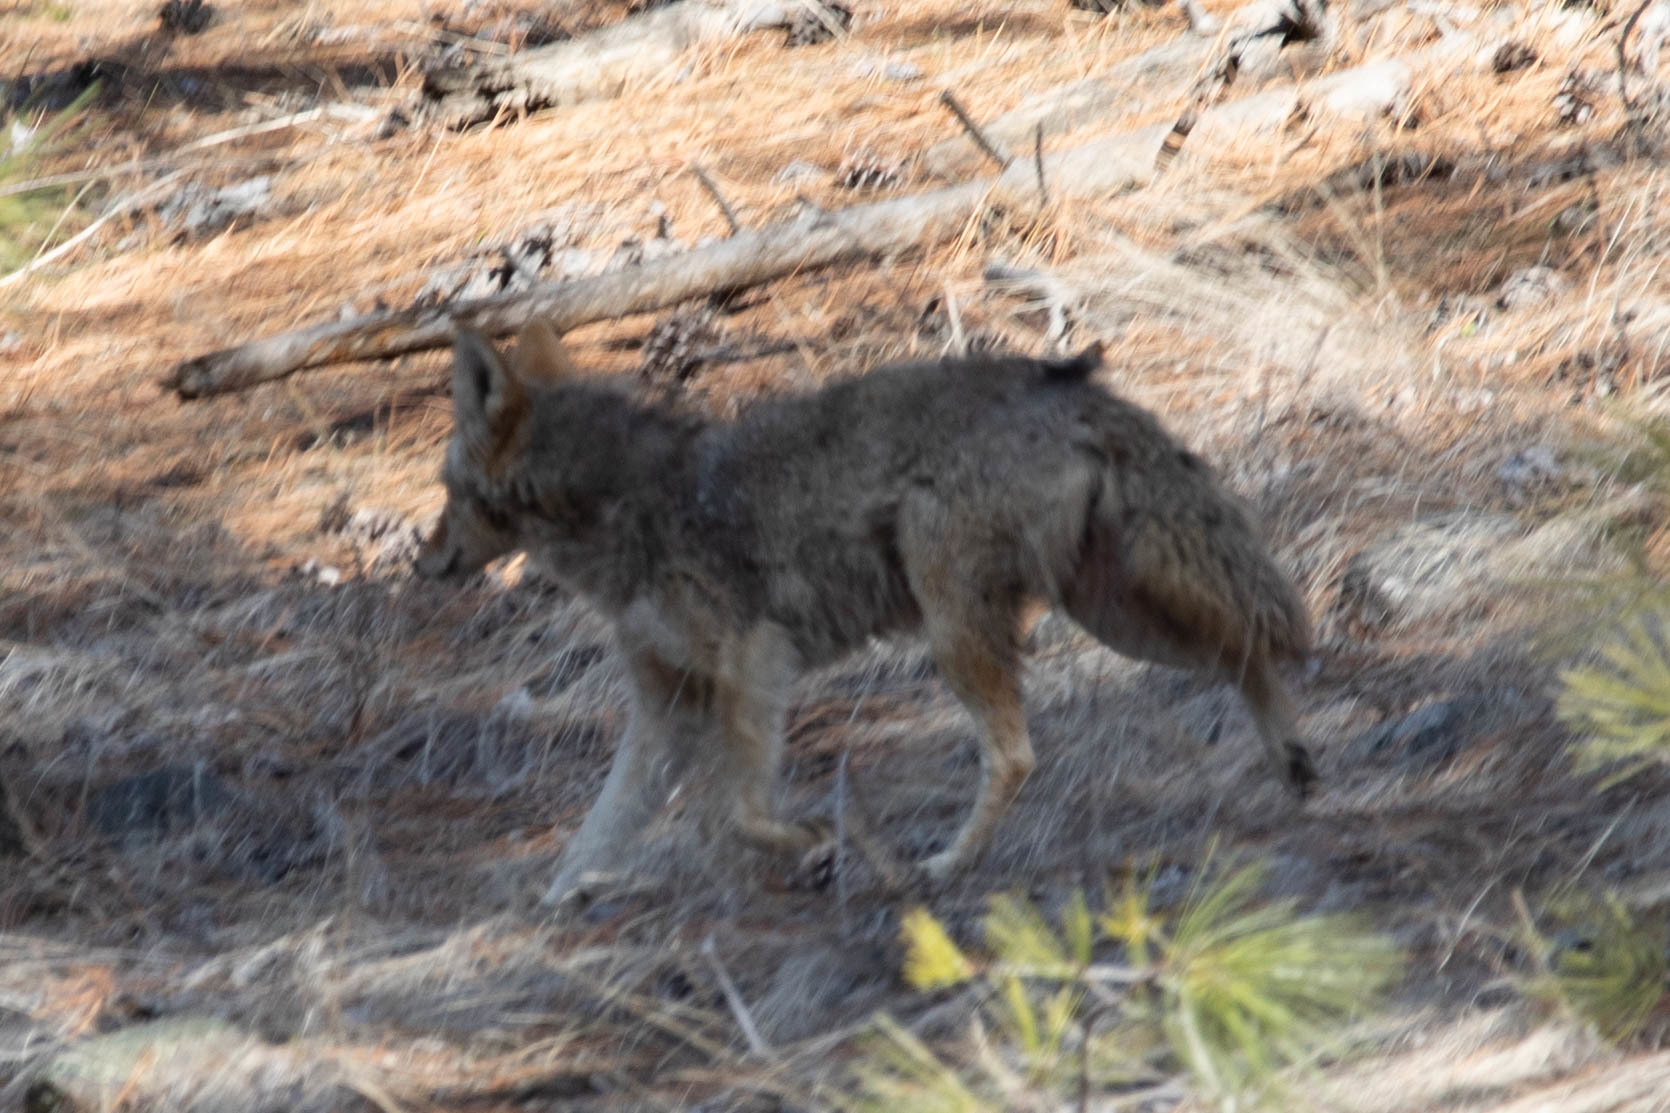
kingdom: Animalia
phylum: Chordata
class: Mammalia
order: Carnivora
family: Canidae
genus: Canis
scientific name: Canis latrans
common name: Coyote
